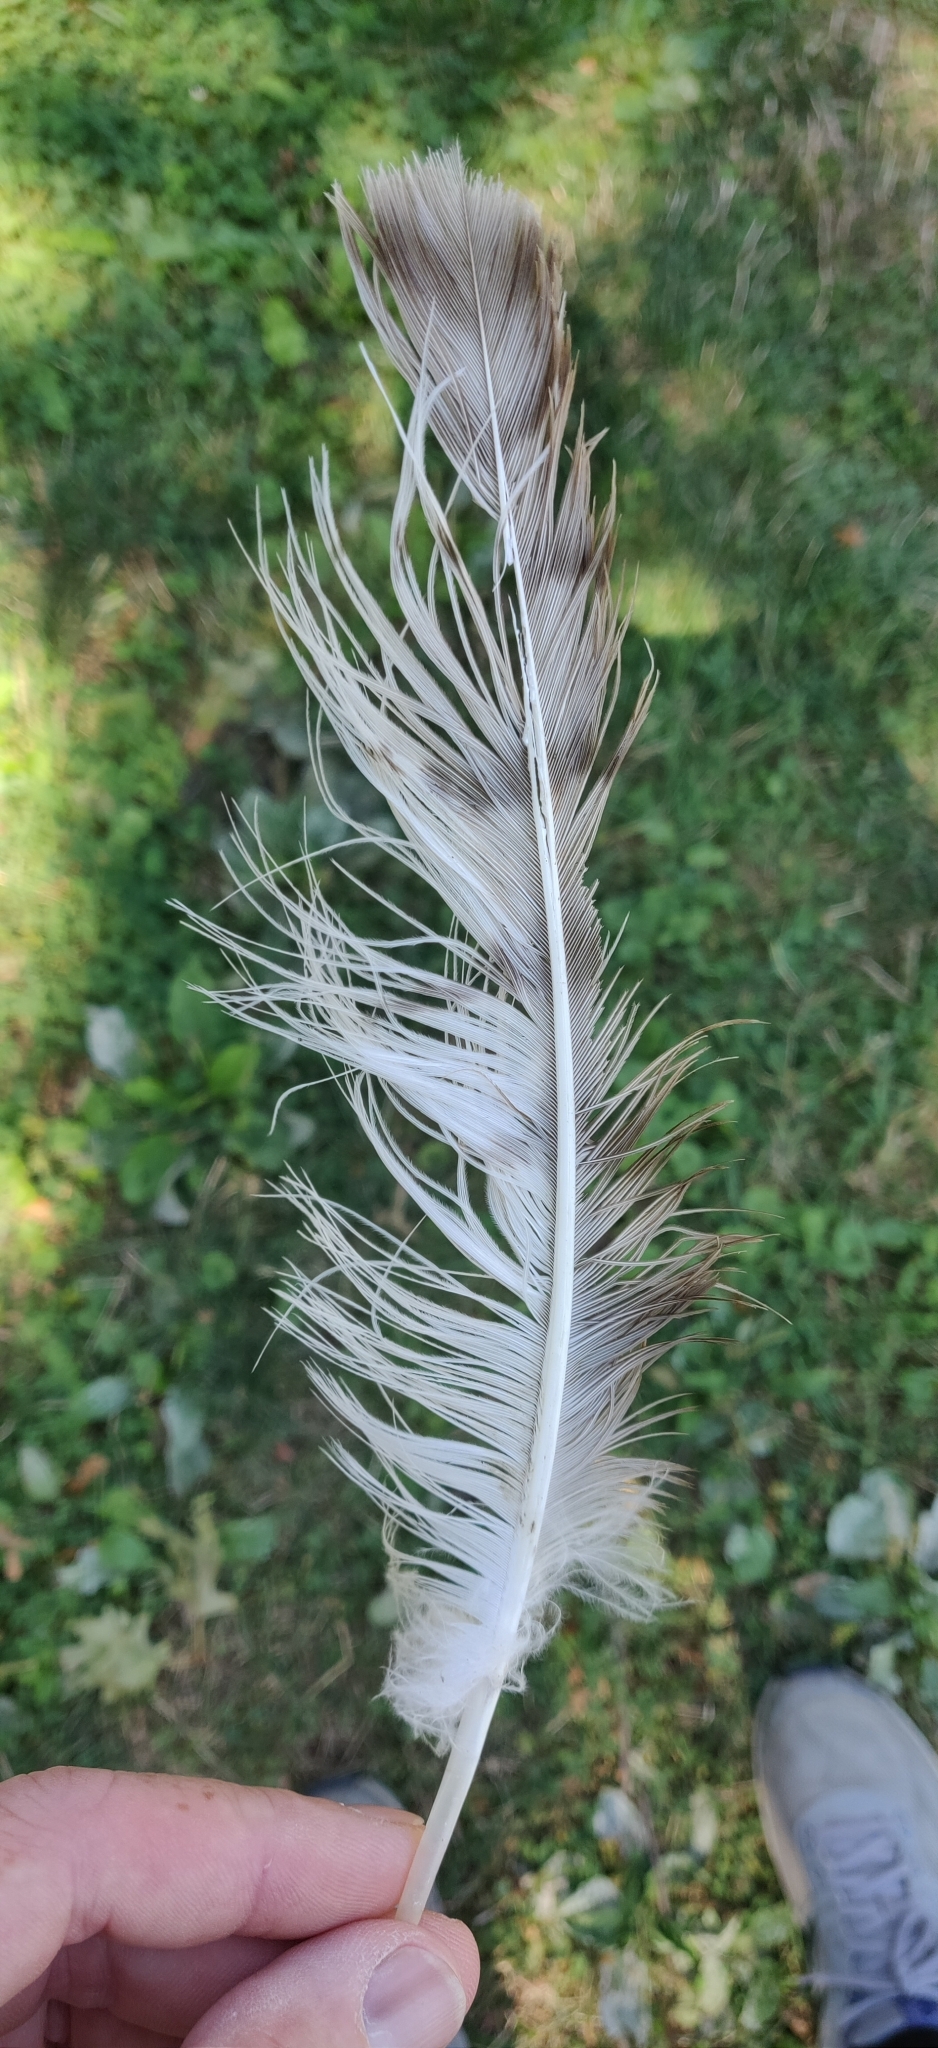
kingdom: Animalia
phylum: Chordata
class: Aves
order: Accipitriformes
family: Accipitridae
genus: Buteo
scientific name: Buteo jamaicensis
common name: Red-tailed hawk
